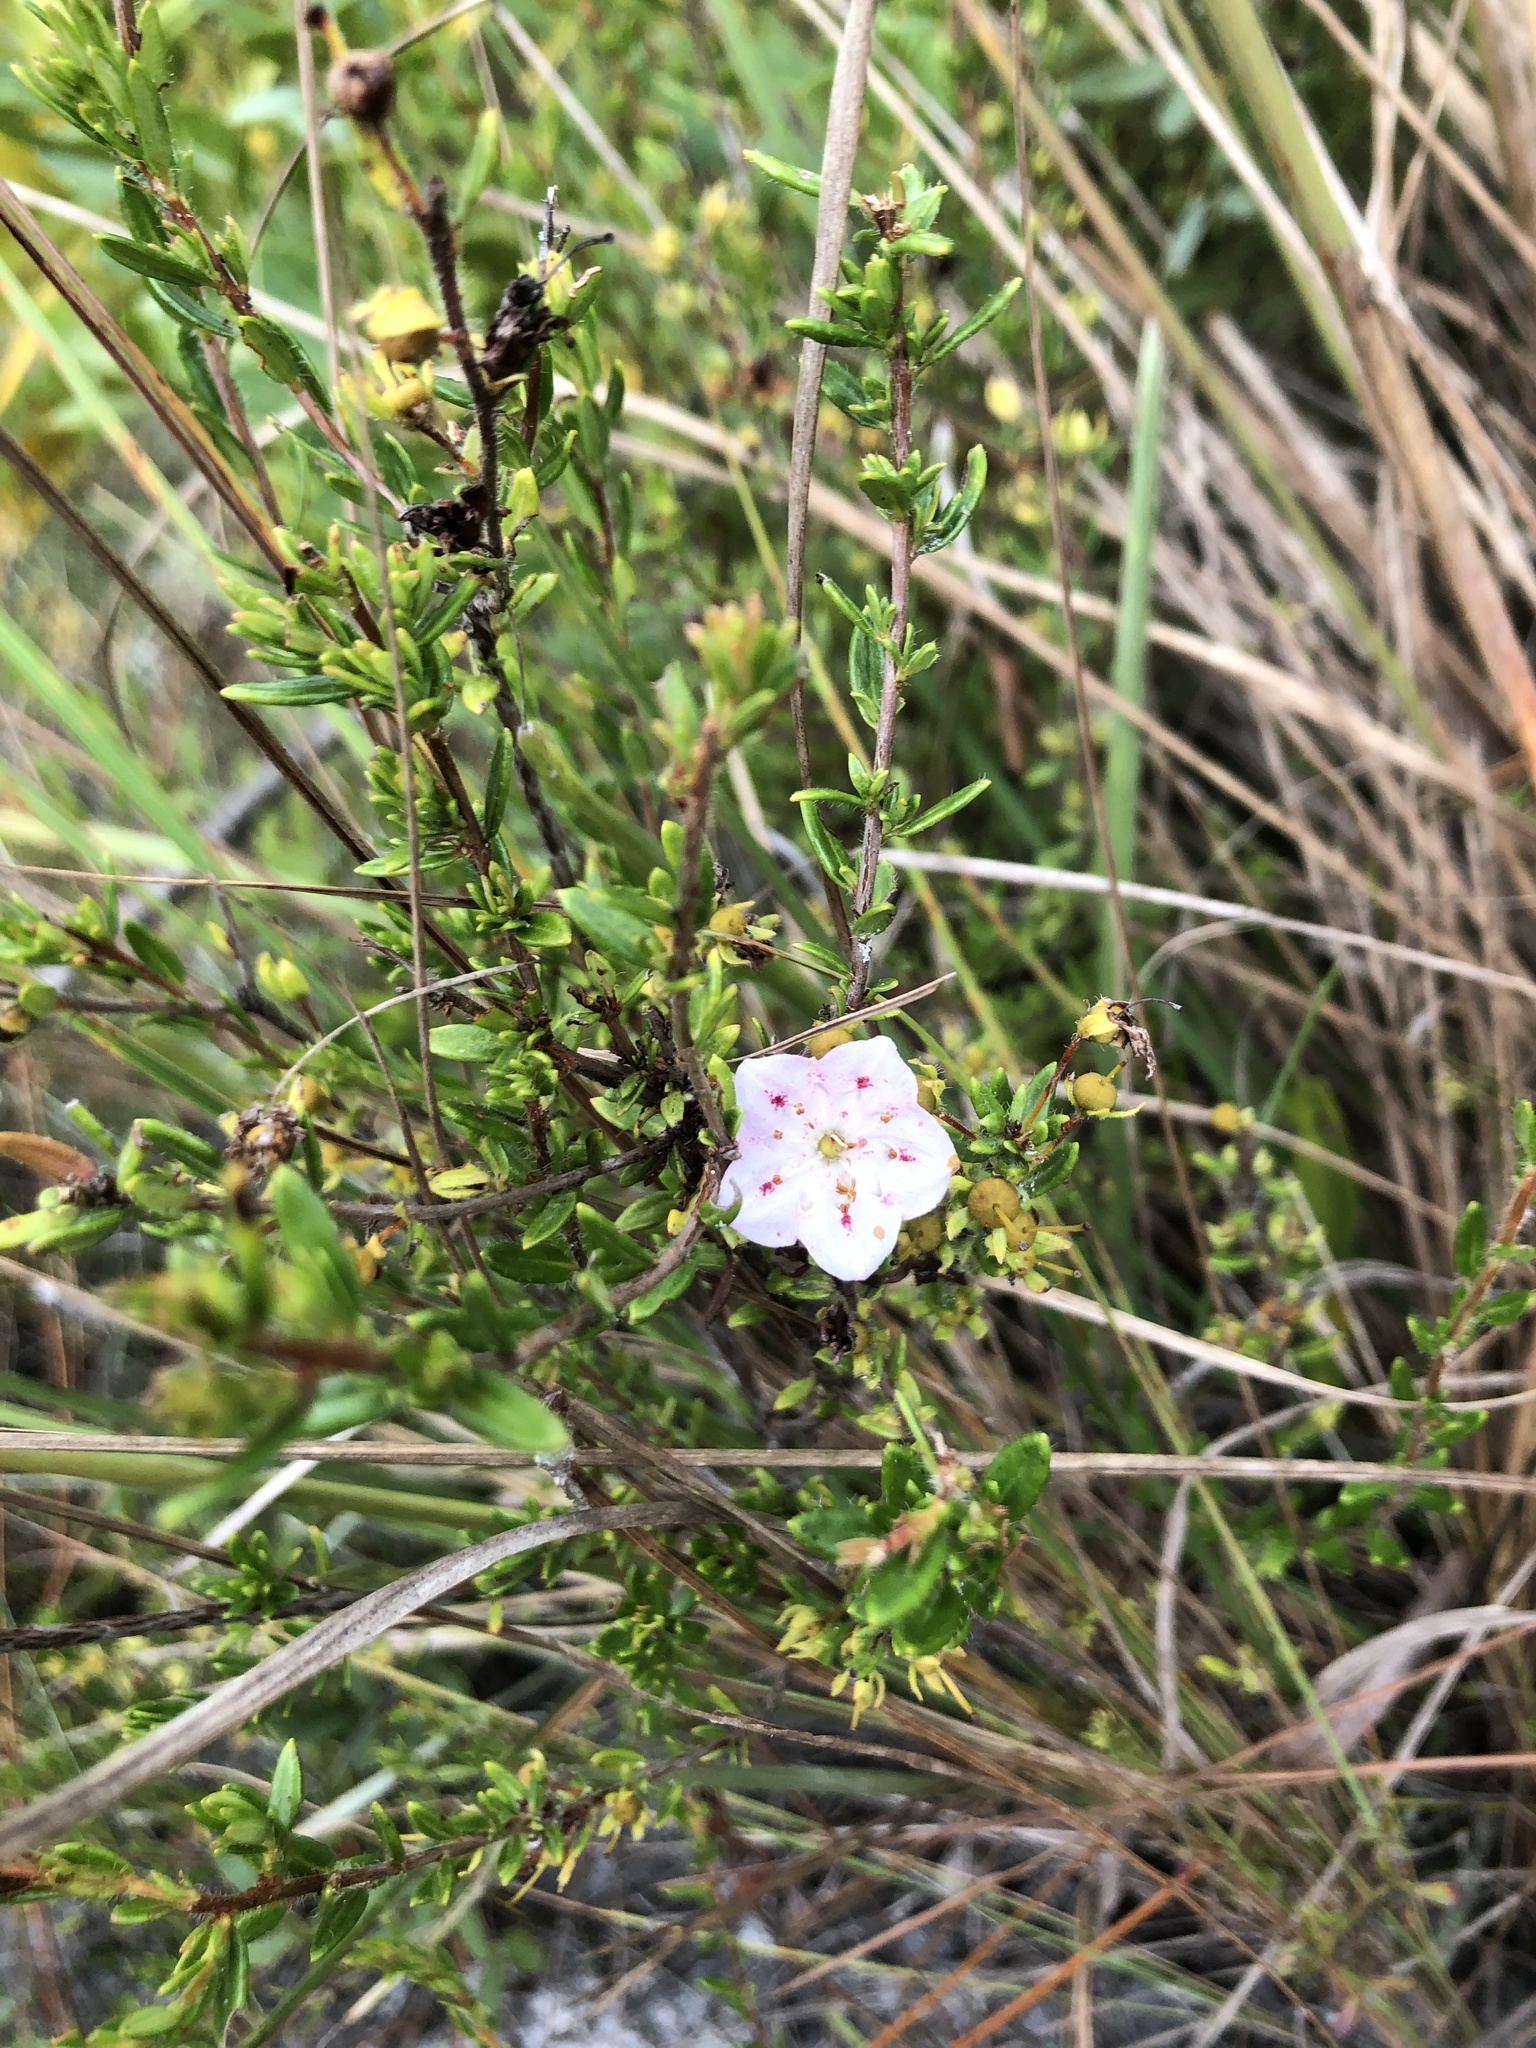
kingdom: Plantae
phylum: Tracheophyta
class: Magnoliopsida
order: Ericales
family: Ericaceae
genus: Kalmia
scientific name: Kalmia hirsuta
